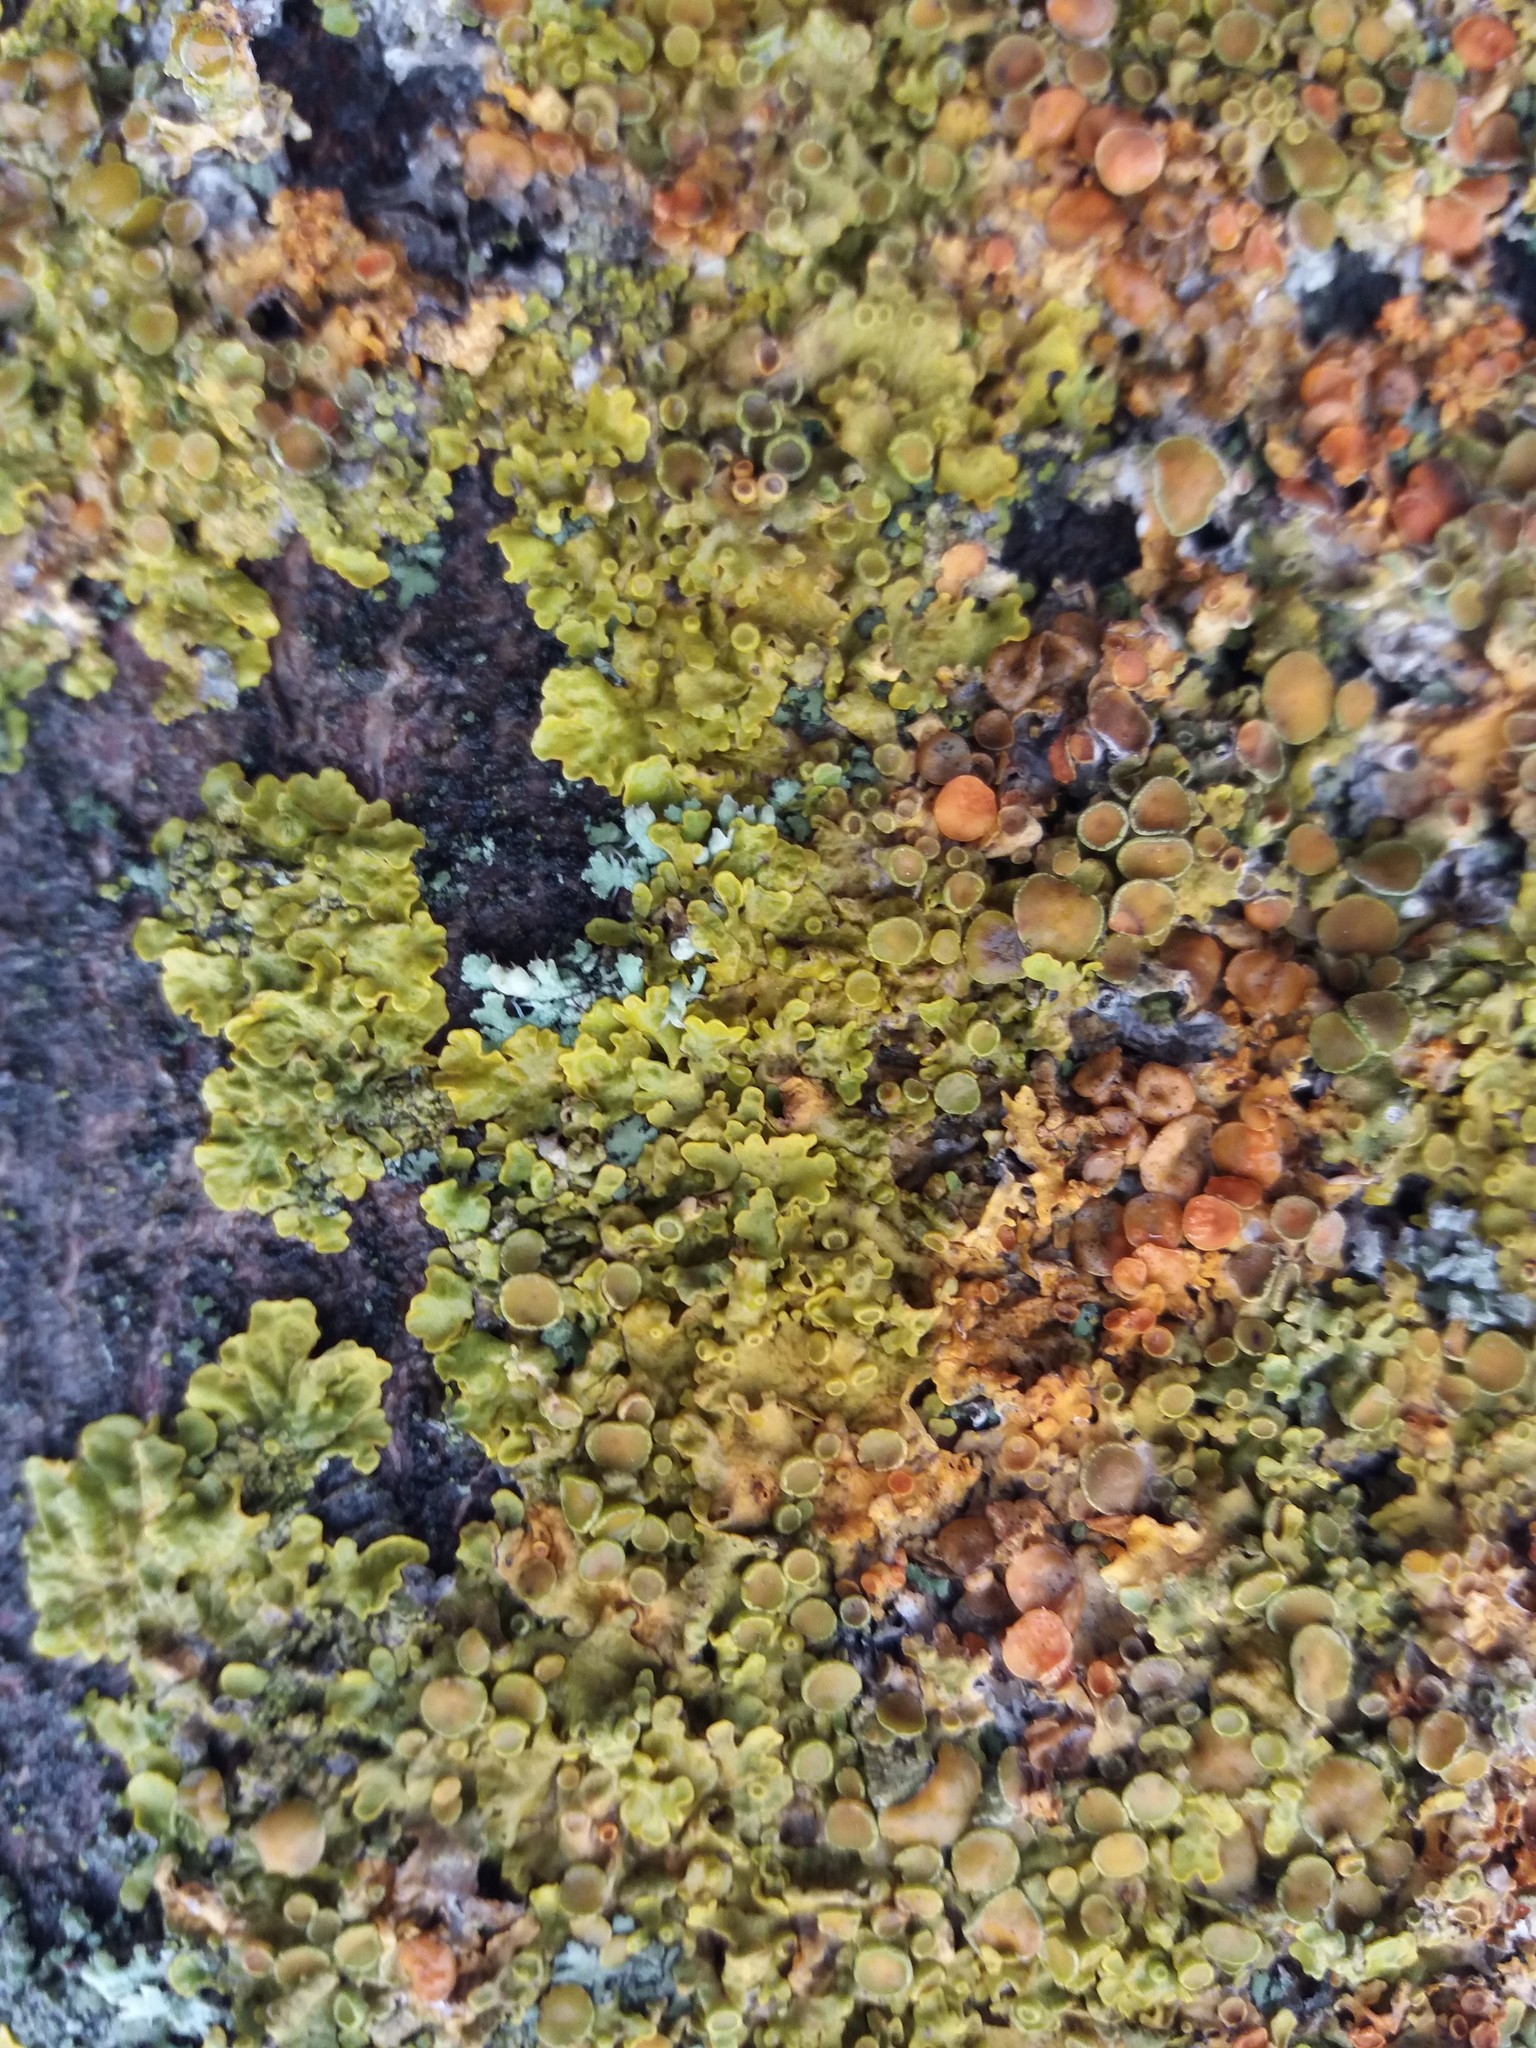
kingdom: Fungi
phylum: Ascomycota
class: Lecanoromycetes
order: Teloschistales
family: Teloschistaceae
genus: Xanthoria
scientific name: Xanthoria parietina
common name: Common orange lichen
